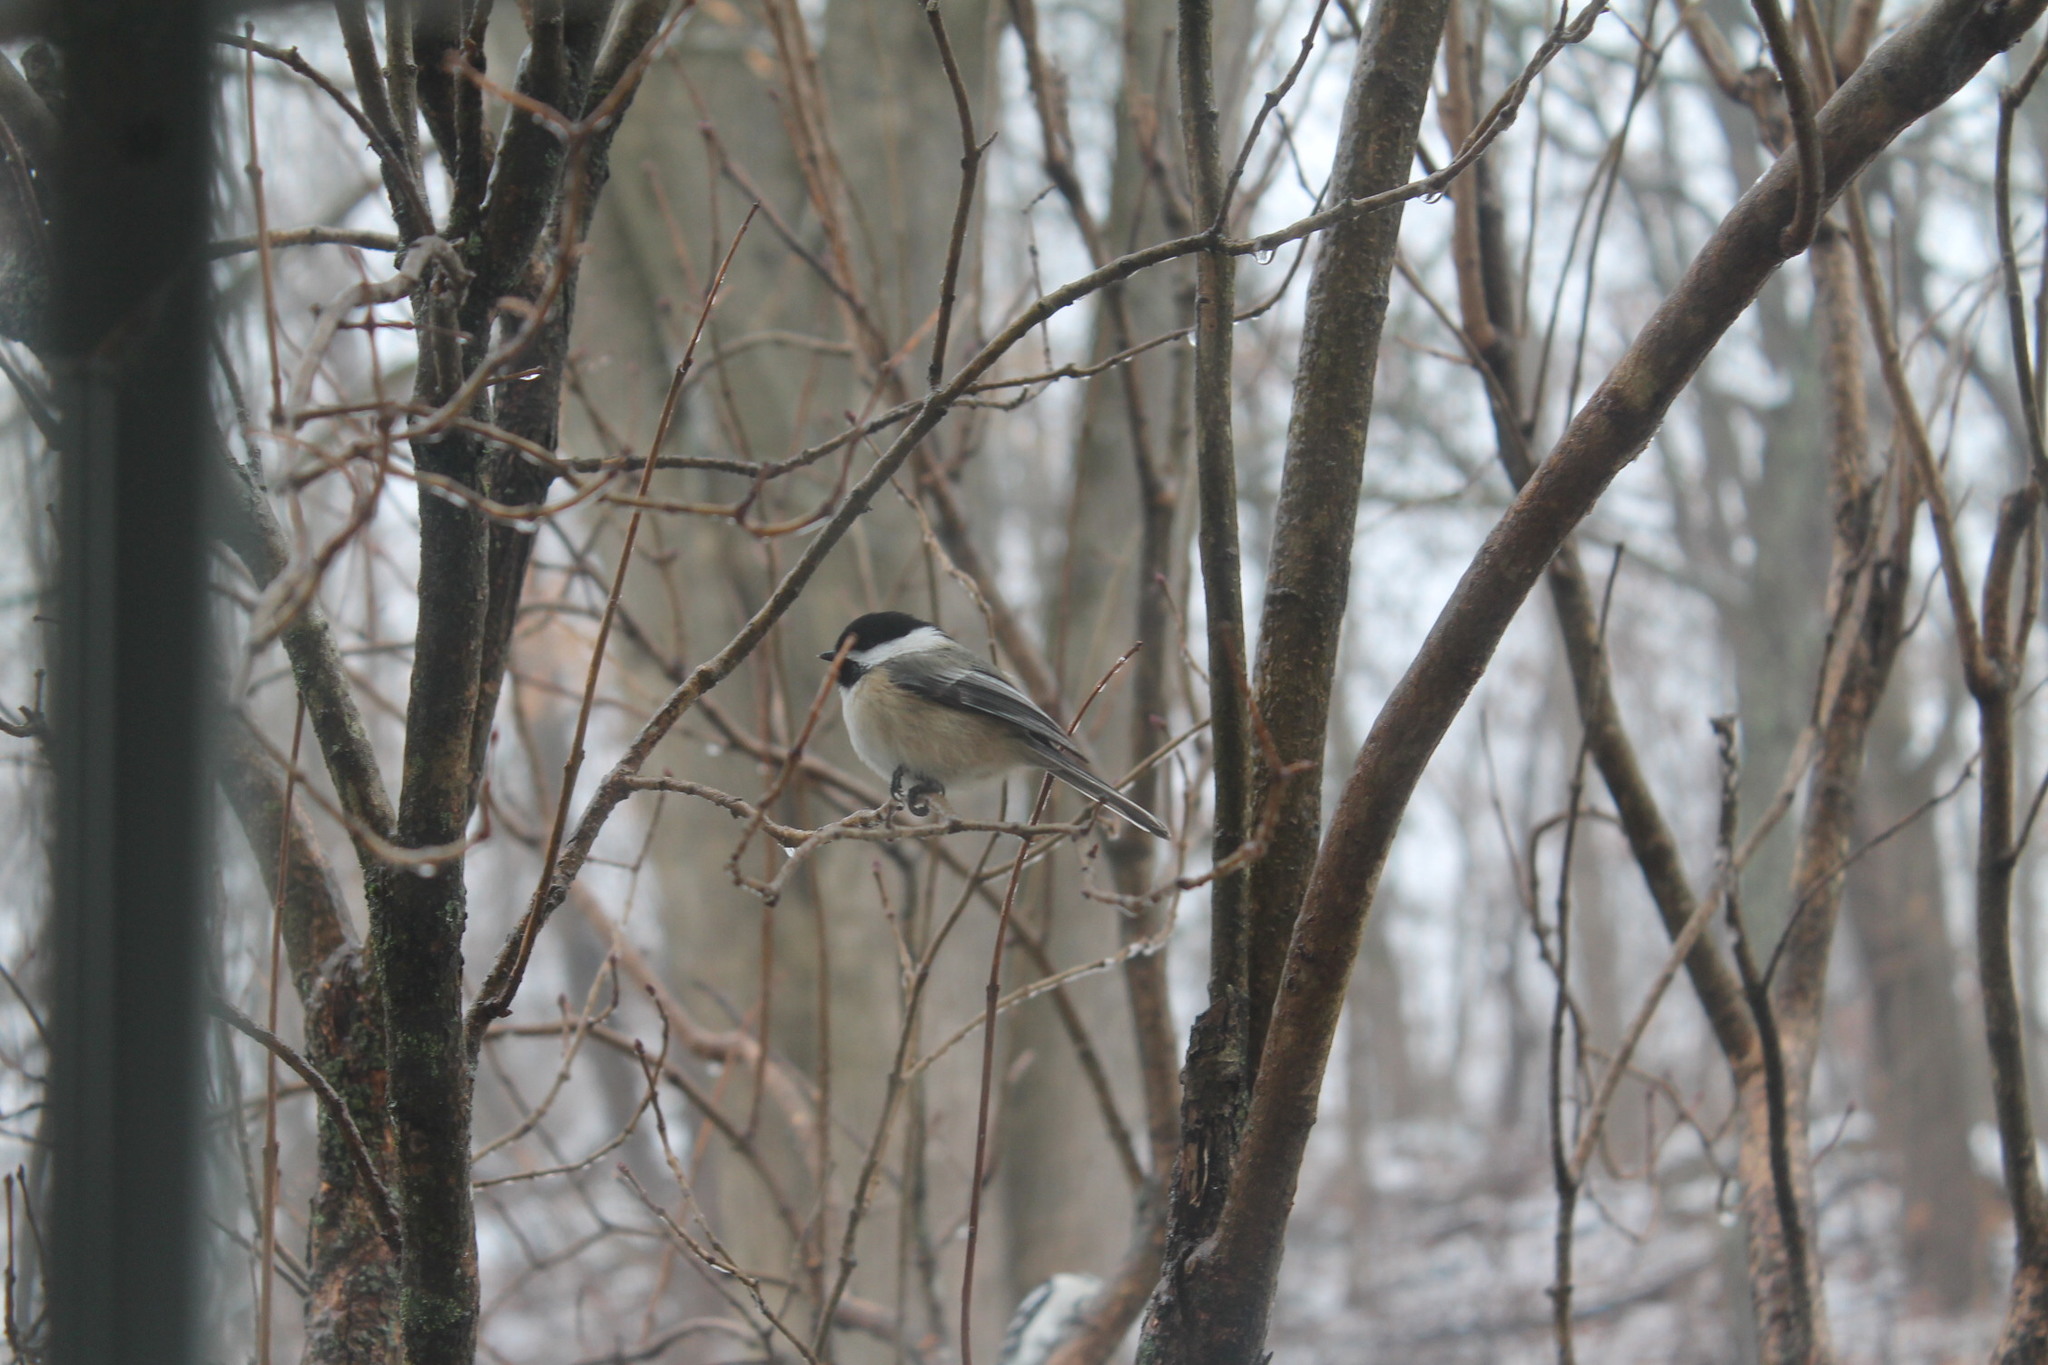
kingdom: Animalia
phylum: Chordata
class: Aves
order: Passeriformes
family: Paridae
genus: Poecile
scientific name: Poecile atricapillus
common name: Black-capped chickadee
